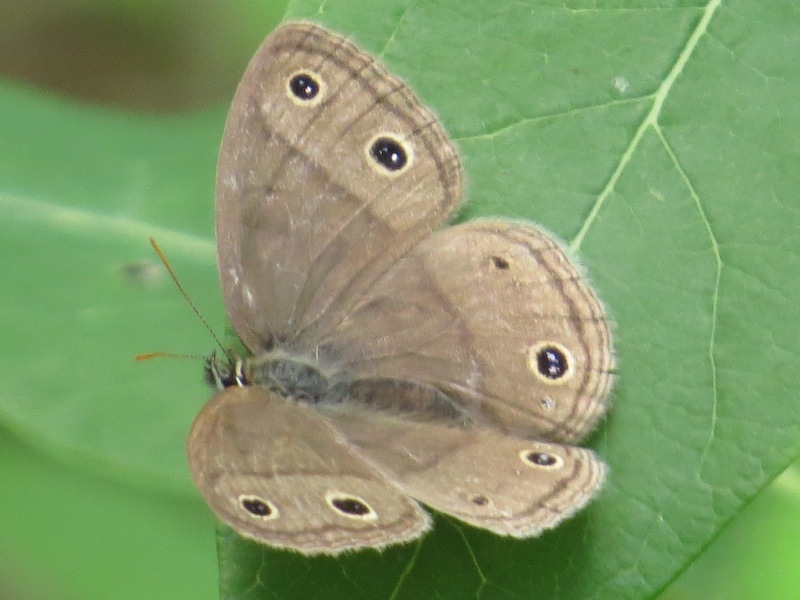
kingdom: Animalia
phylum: Arthropoda
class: Insecta
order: Lepidoptera
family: Nymphalidae
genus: Euptychia
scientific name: Euptychia cymela
